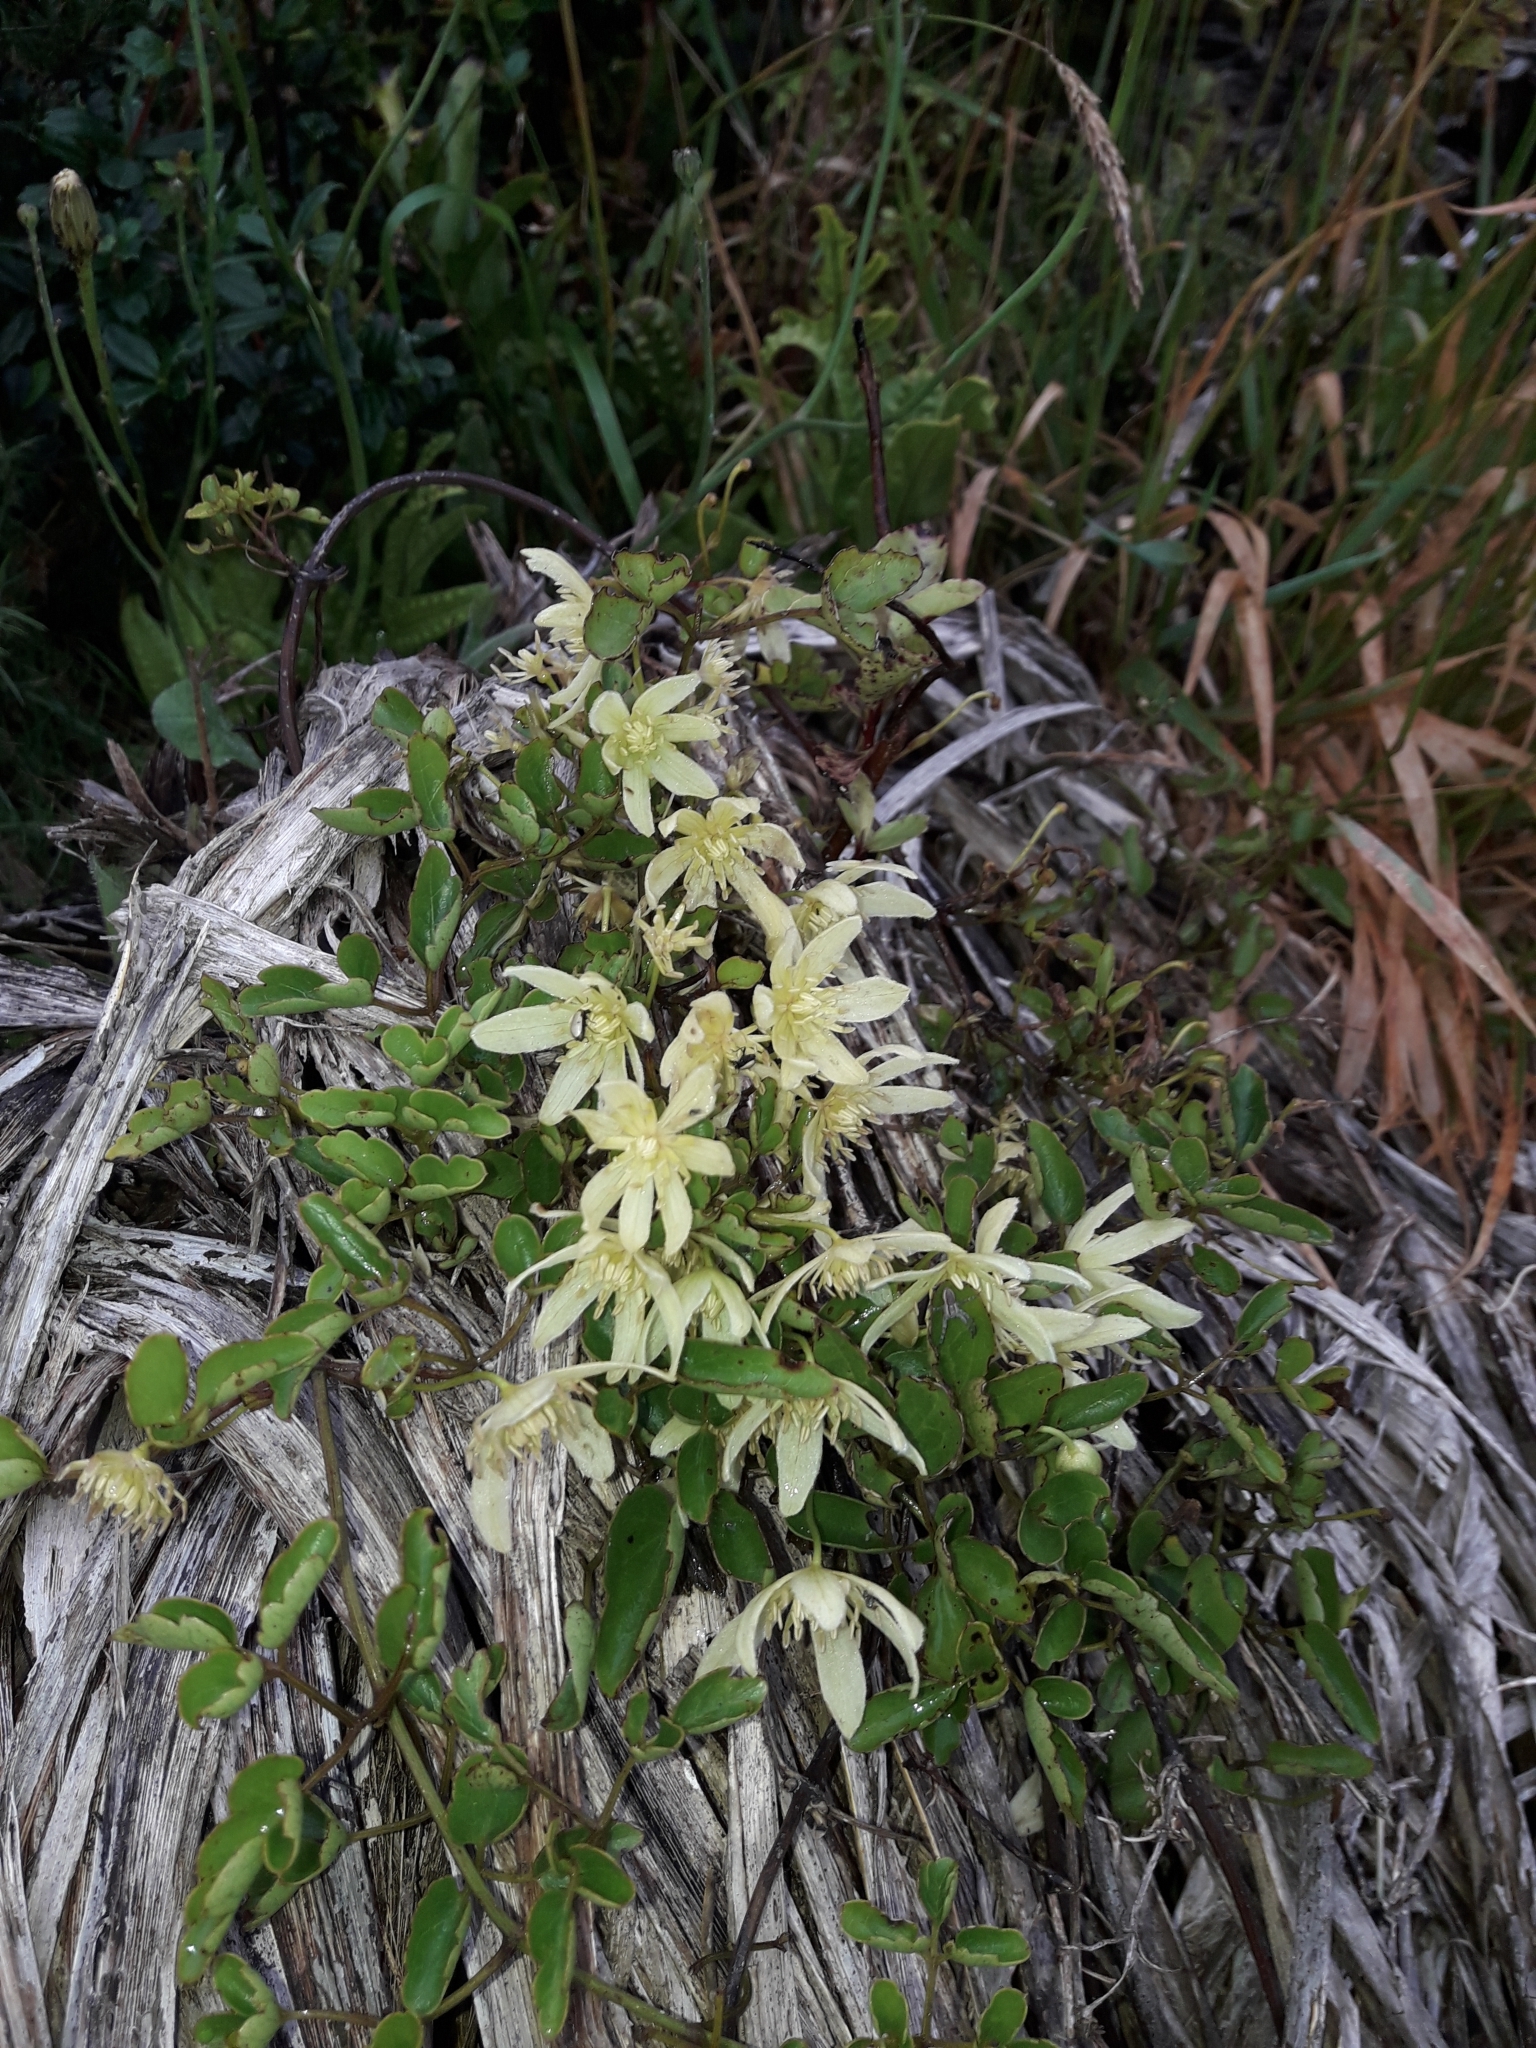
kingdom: Plantae
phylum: Tracheophyta
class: Magnoliopsida
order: Ranunculales
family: Ranunculaceae
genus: Clematis
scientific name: Clematis forsteri
